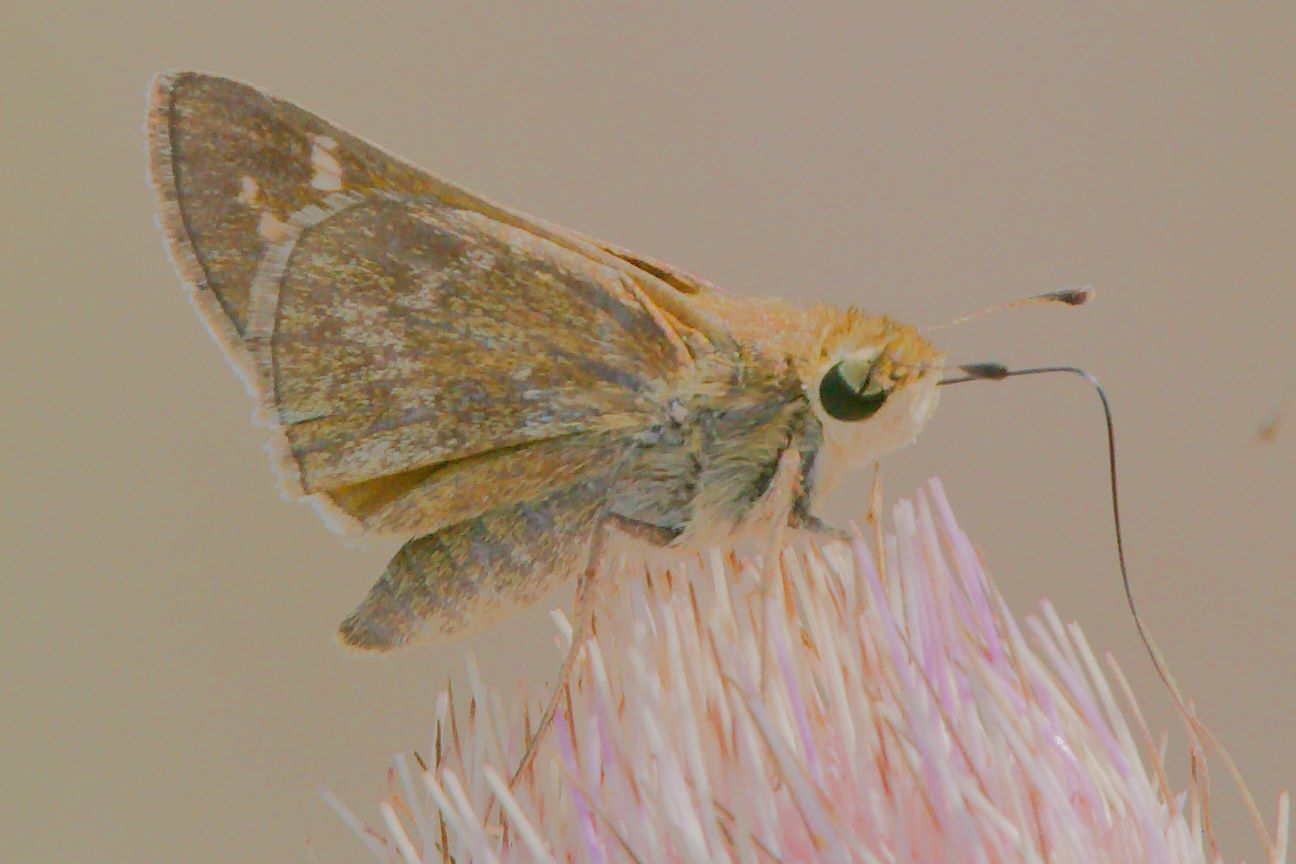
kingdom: Animalia
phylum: Arthropoda
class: Insecta
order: Lepidoptera
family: Hesperiidae
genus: Atalopedes
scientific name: Atalopedes
